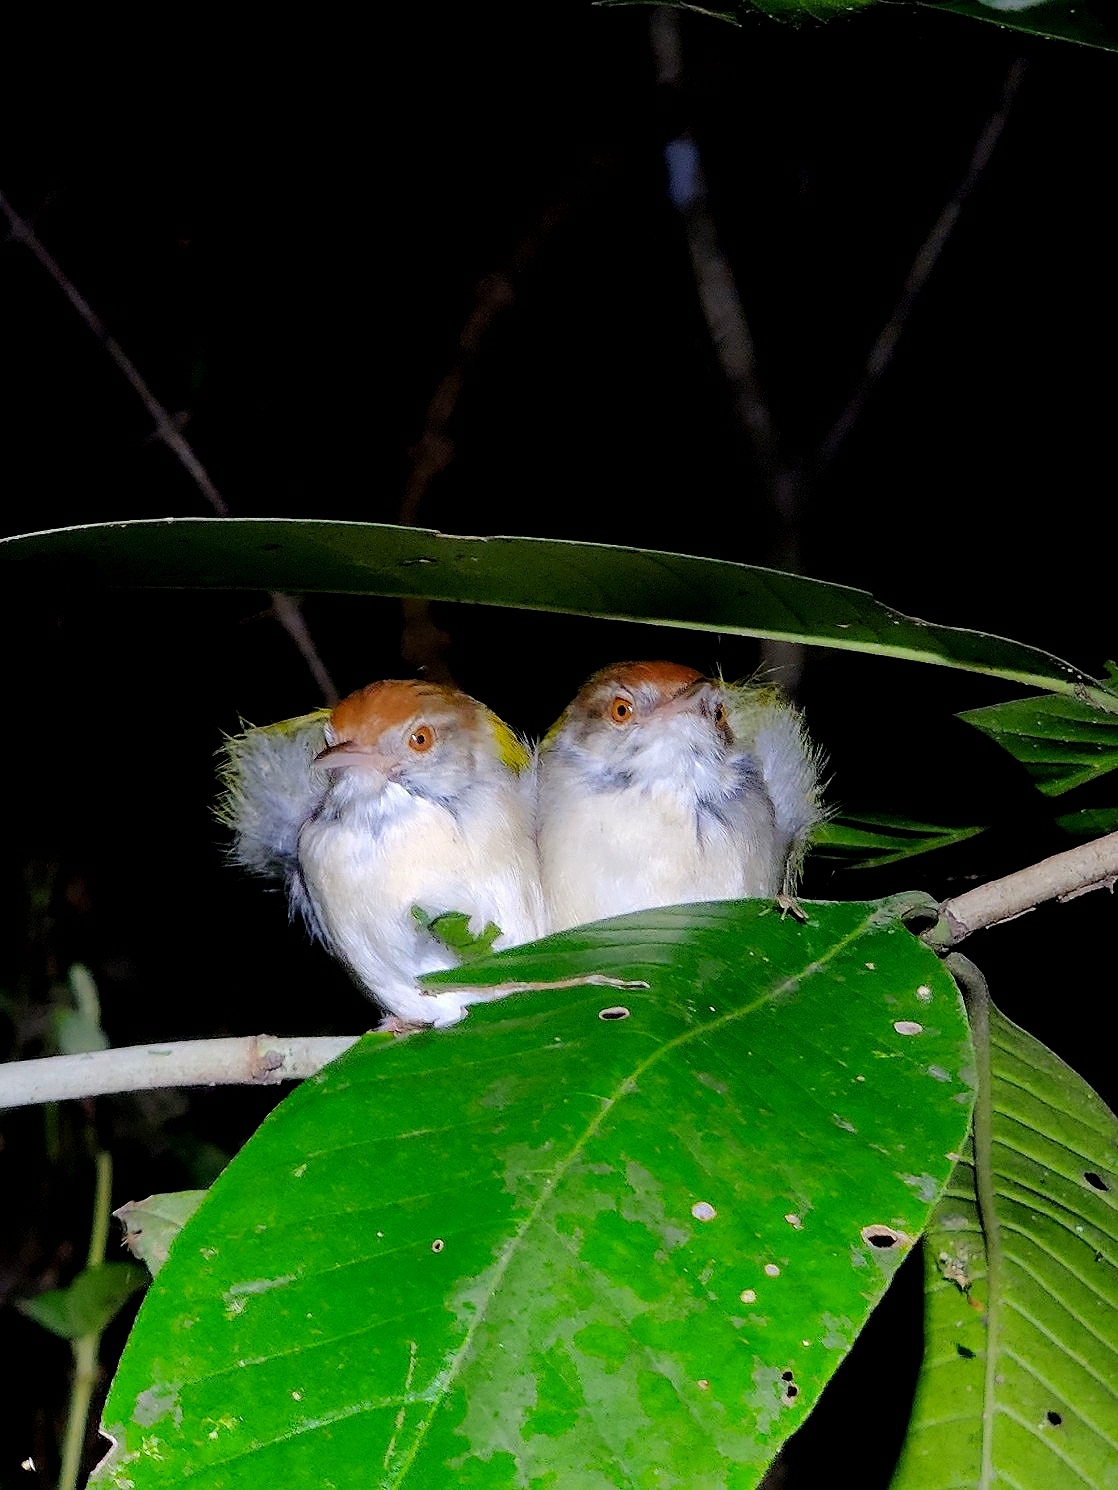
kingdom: Animalia
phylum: Chordata
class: Aves
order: Passeriformes
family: Cisticolidae
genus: Orthotomus
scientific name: Orthotomus sutorius
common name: Common tailorbird
